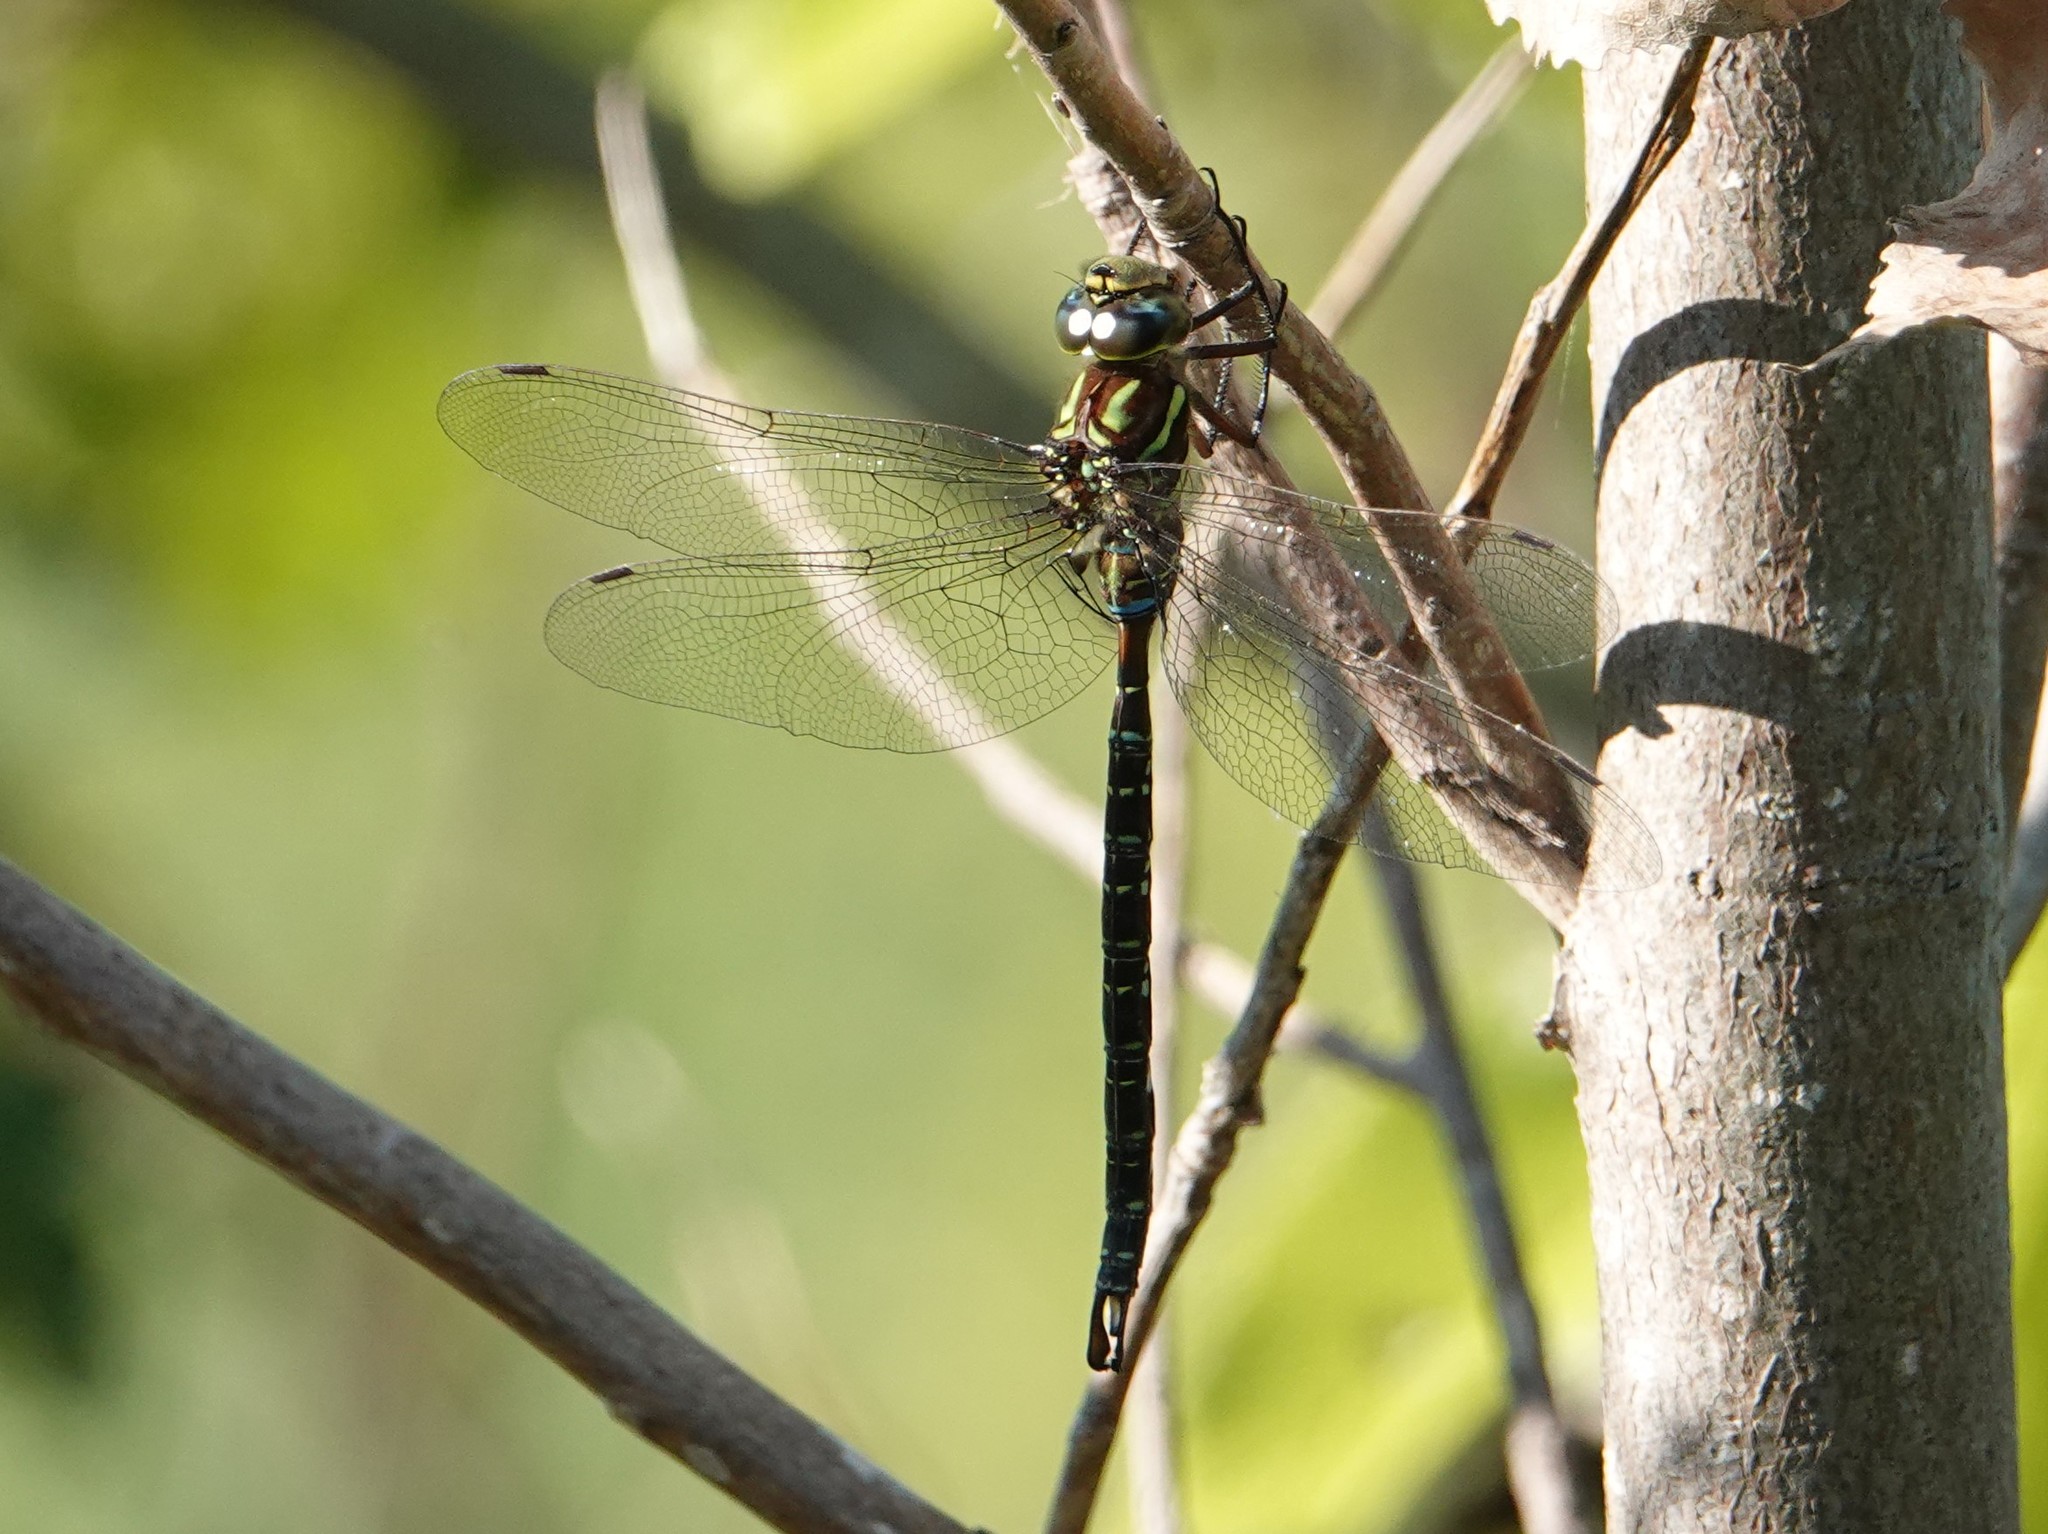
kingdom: Animalia
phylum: Arthropoda
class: Insecta
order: Odonata
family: Aeshnidae
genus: Aeshna
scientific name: Aeshna umbrosa
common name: Shadow darner
